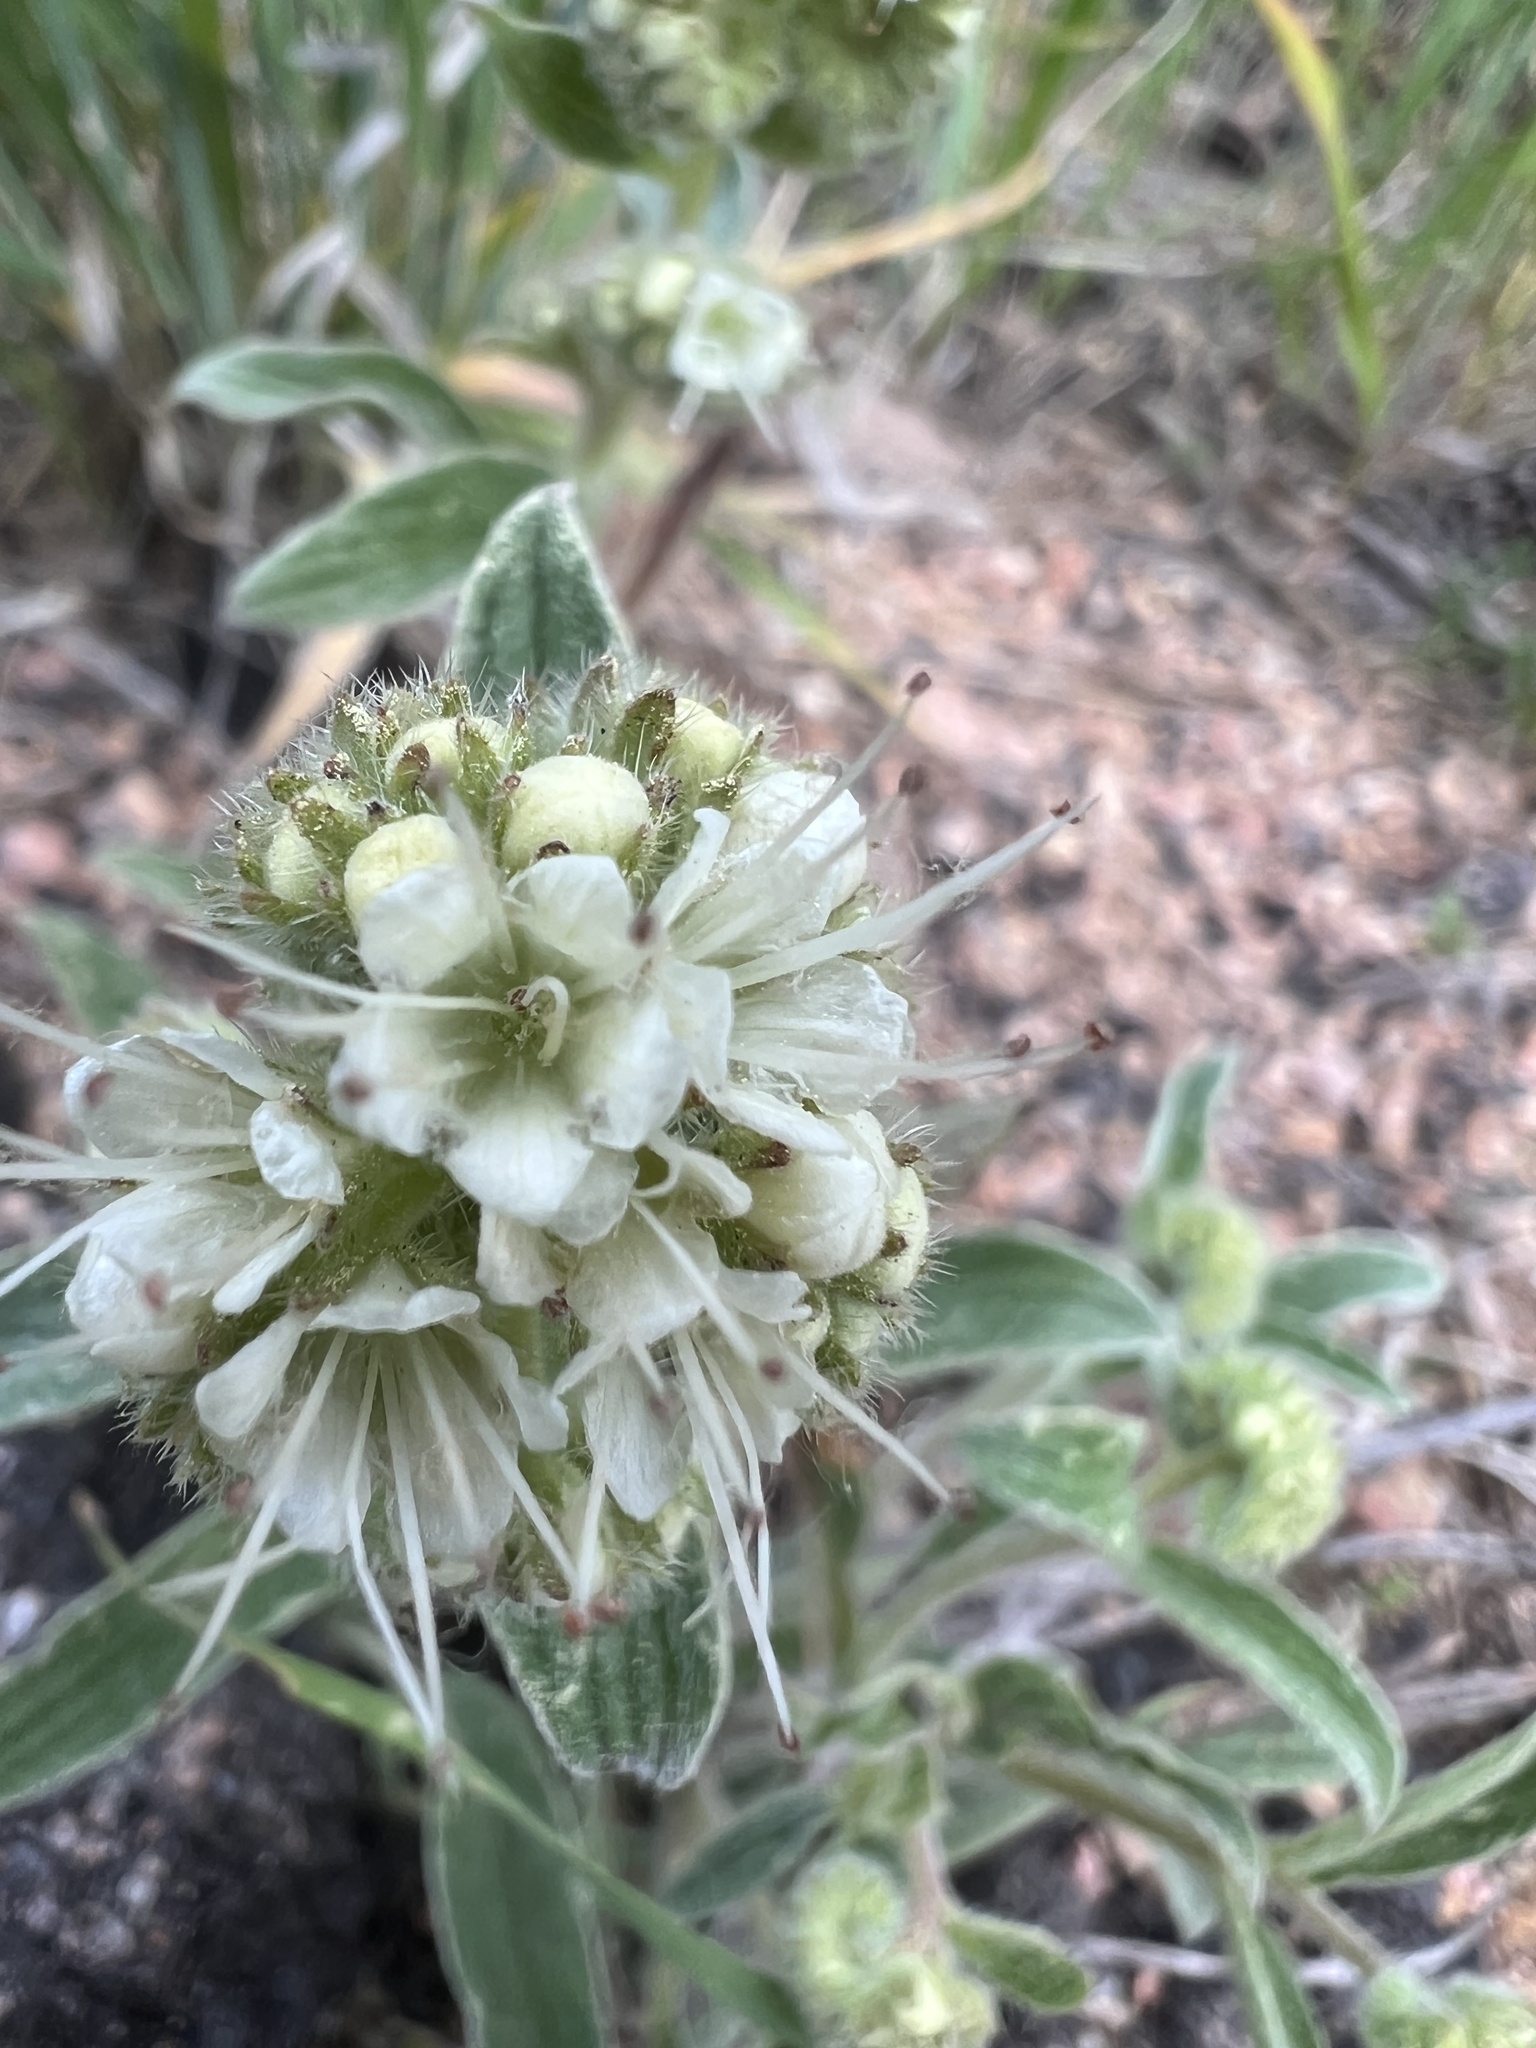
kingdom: Plantae
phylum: Tracheophyta
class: Magnoliopsida
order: Boraginales
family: Hydrophyllaceae
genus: Phacelia
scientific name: Phacelia hastata
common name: Silver-leaved phacelia
